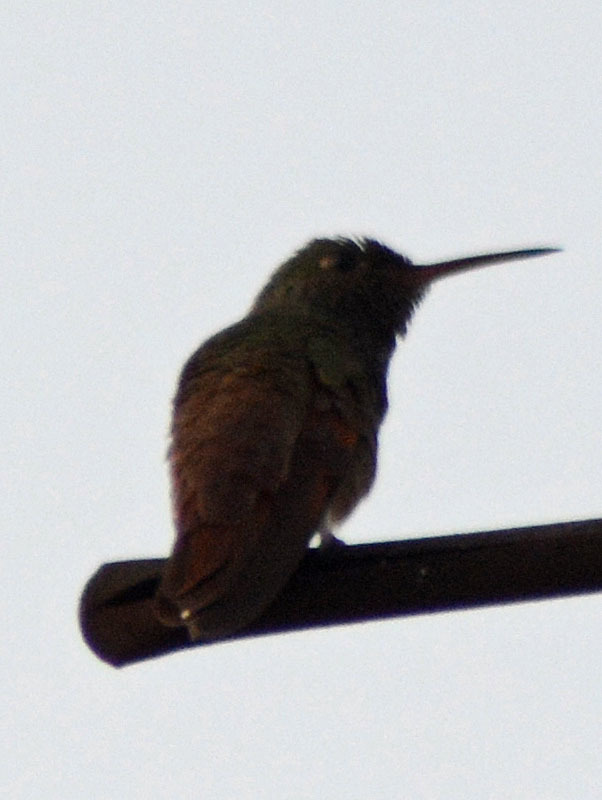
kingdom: Animalia
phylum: Chordata
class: Aves
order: Apodiformes
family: Trochilidae
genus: Saucerottia
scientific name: Saucerottia beryllina
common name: Berylline hummingbird
